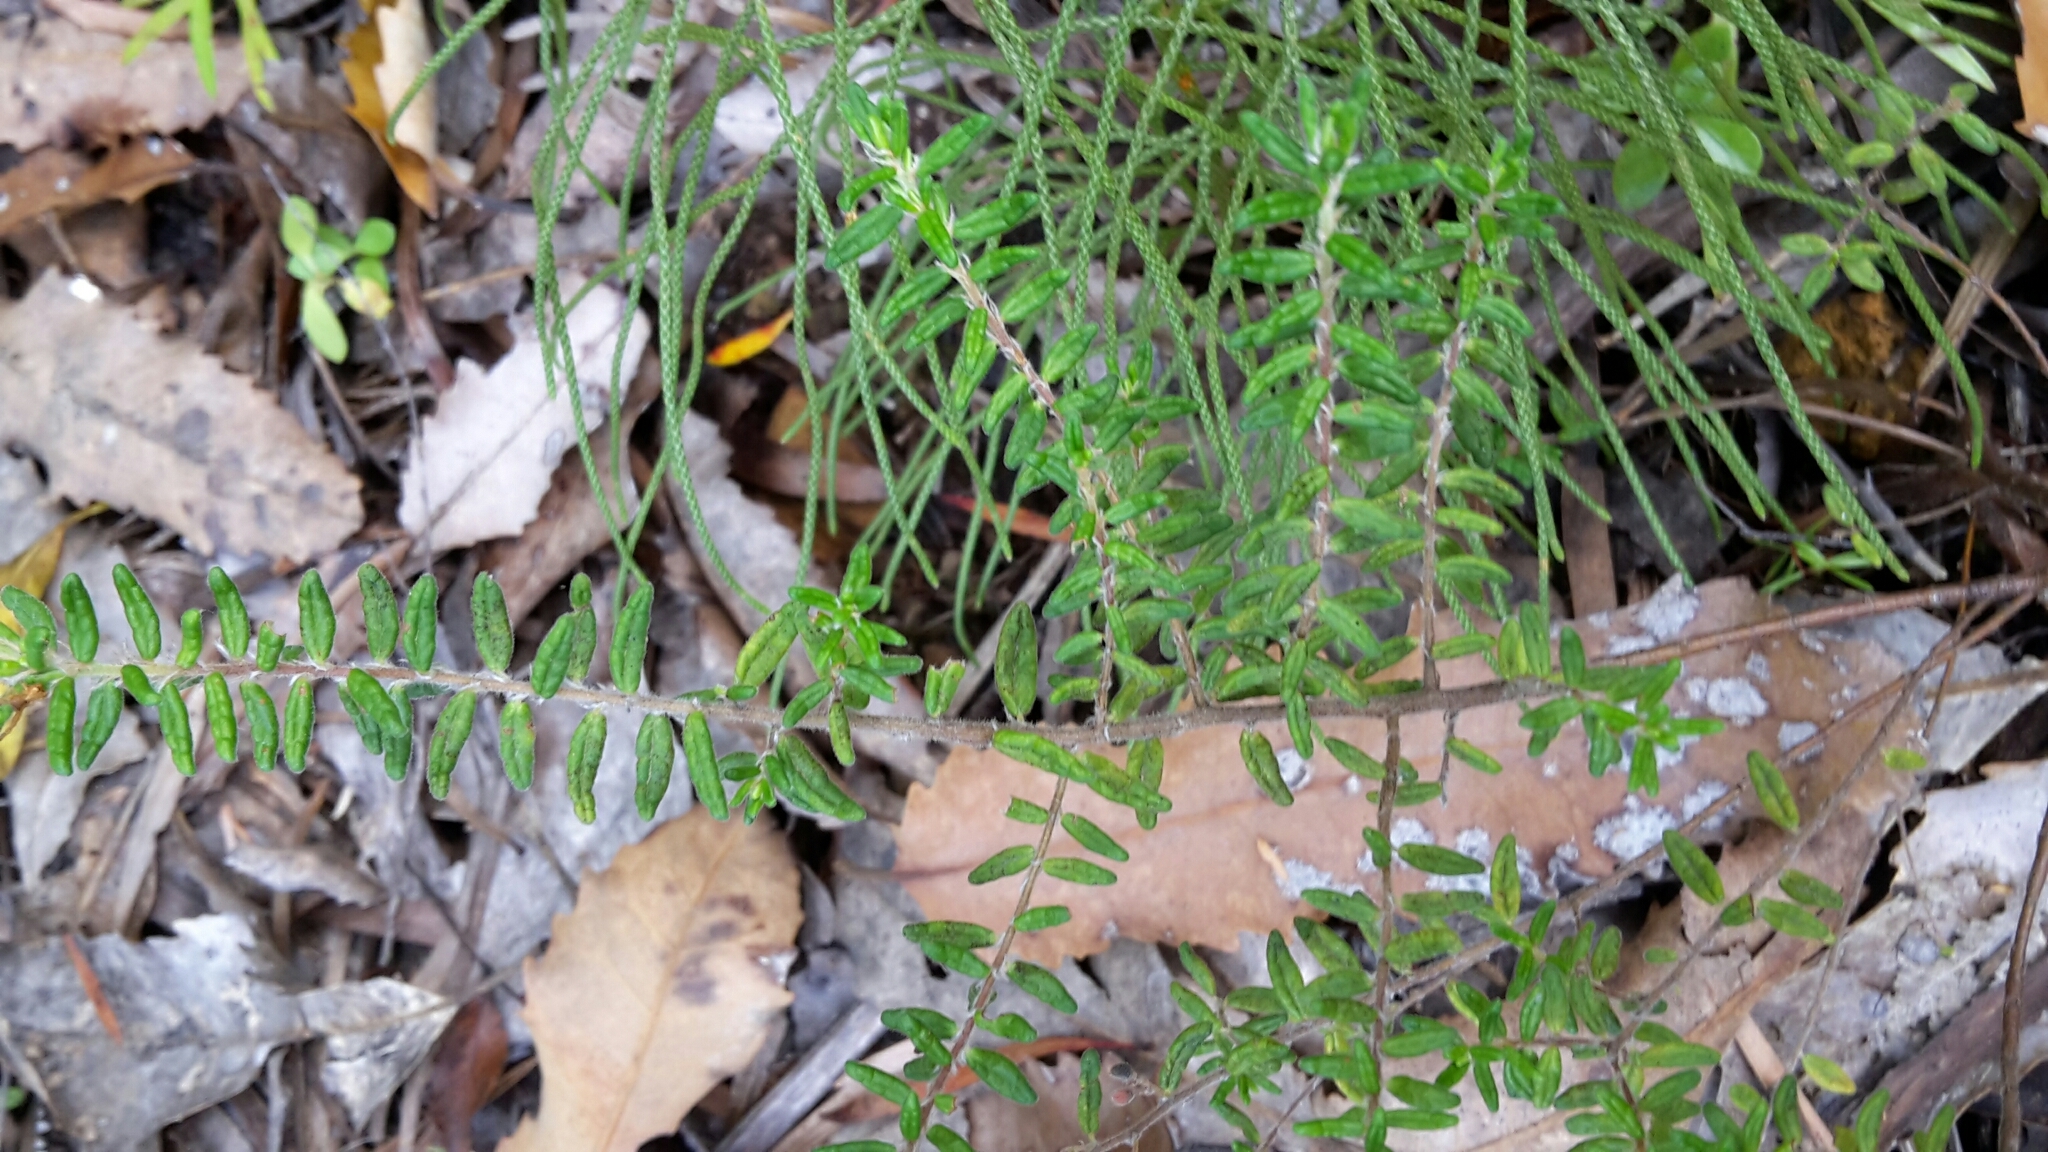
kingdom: Plantae
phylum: Tracheophyta
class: Magnoliopsida
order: Rosales
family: Rhamnaceae
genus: Pomaderris
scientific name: Pomaderris amoena
